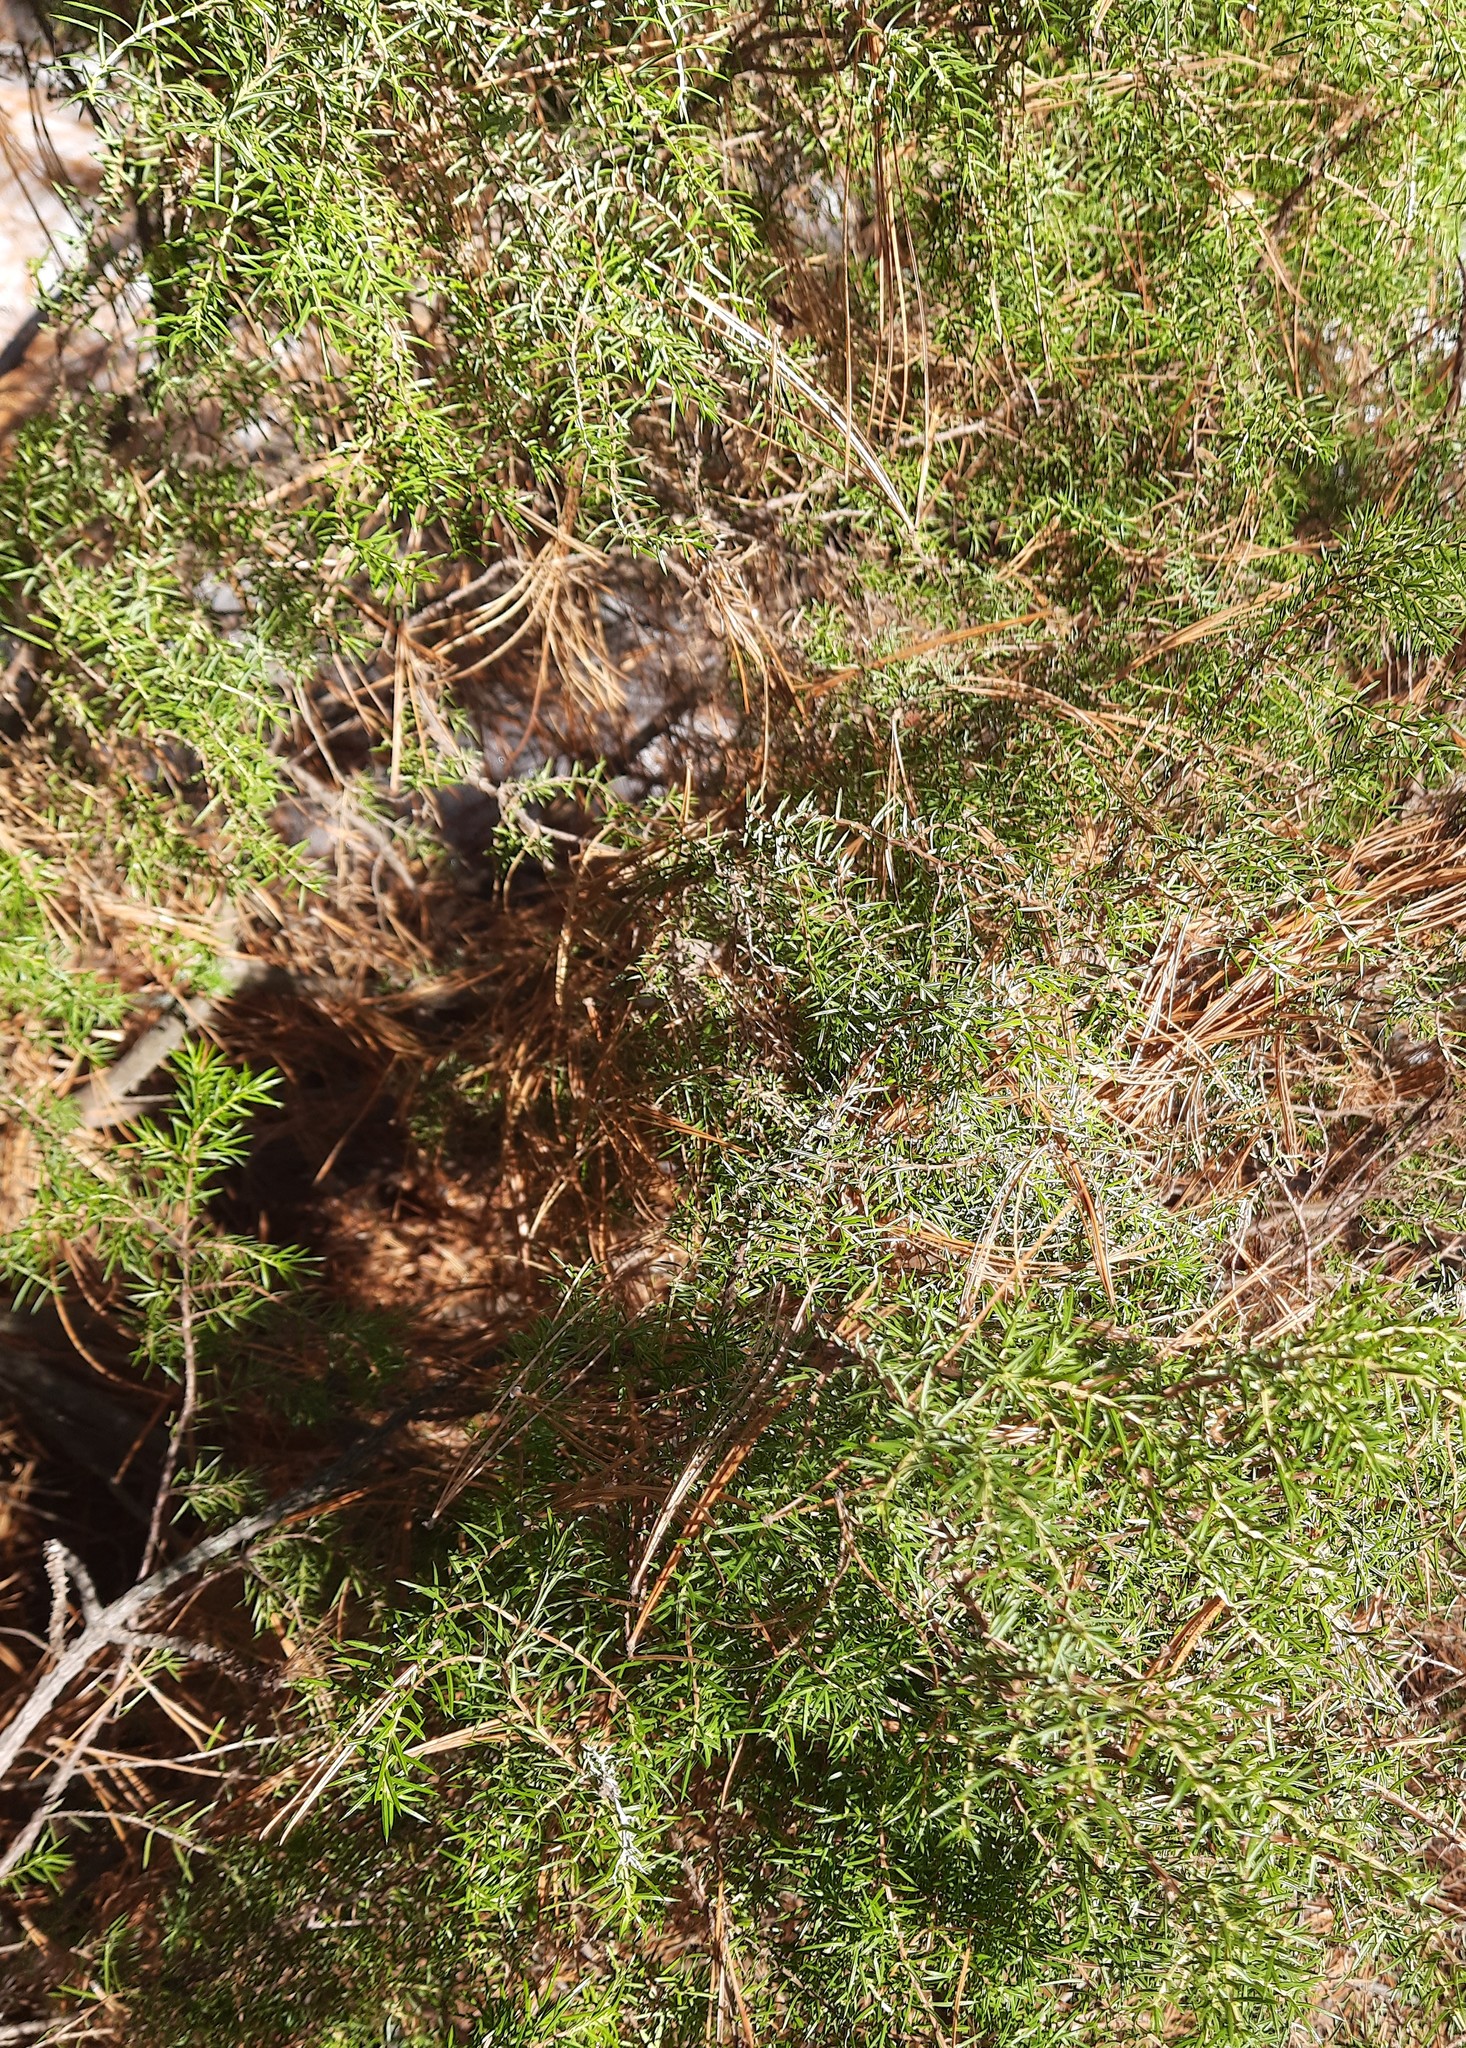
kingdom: Plantae
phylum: Tracheophyta
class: Pinopsida
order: Pinales
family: Cupressaceae
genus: Juniperus
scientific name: Juniperus communis
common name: Common juniper
